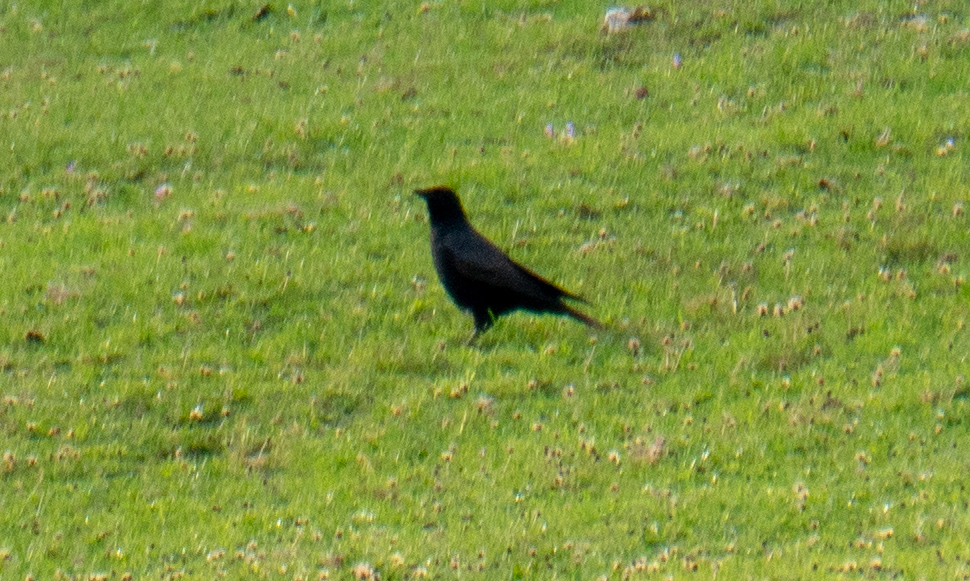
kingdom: Animalia
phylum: Chordata
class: Aves
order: Passeriformes
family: Corvidae
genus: Corvus
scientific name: Corvus corone
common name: Carrion crow
